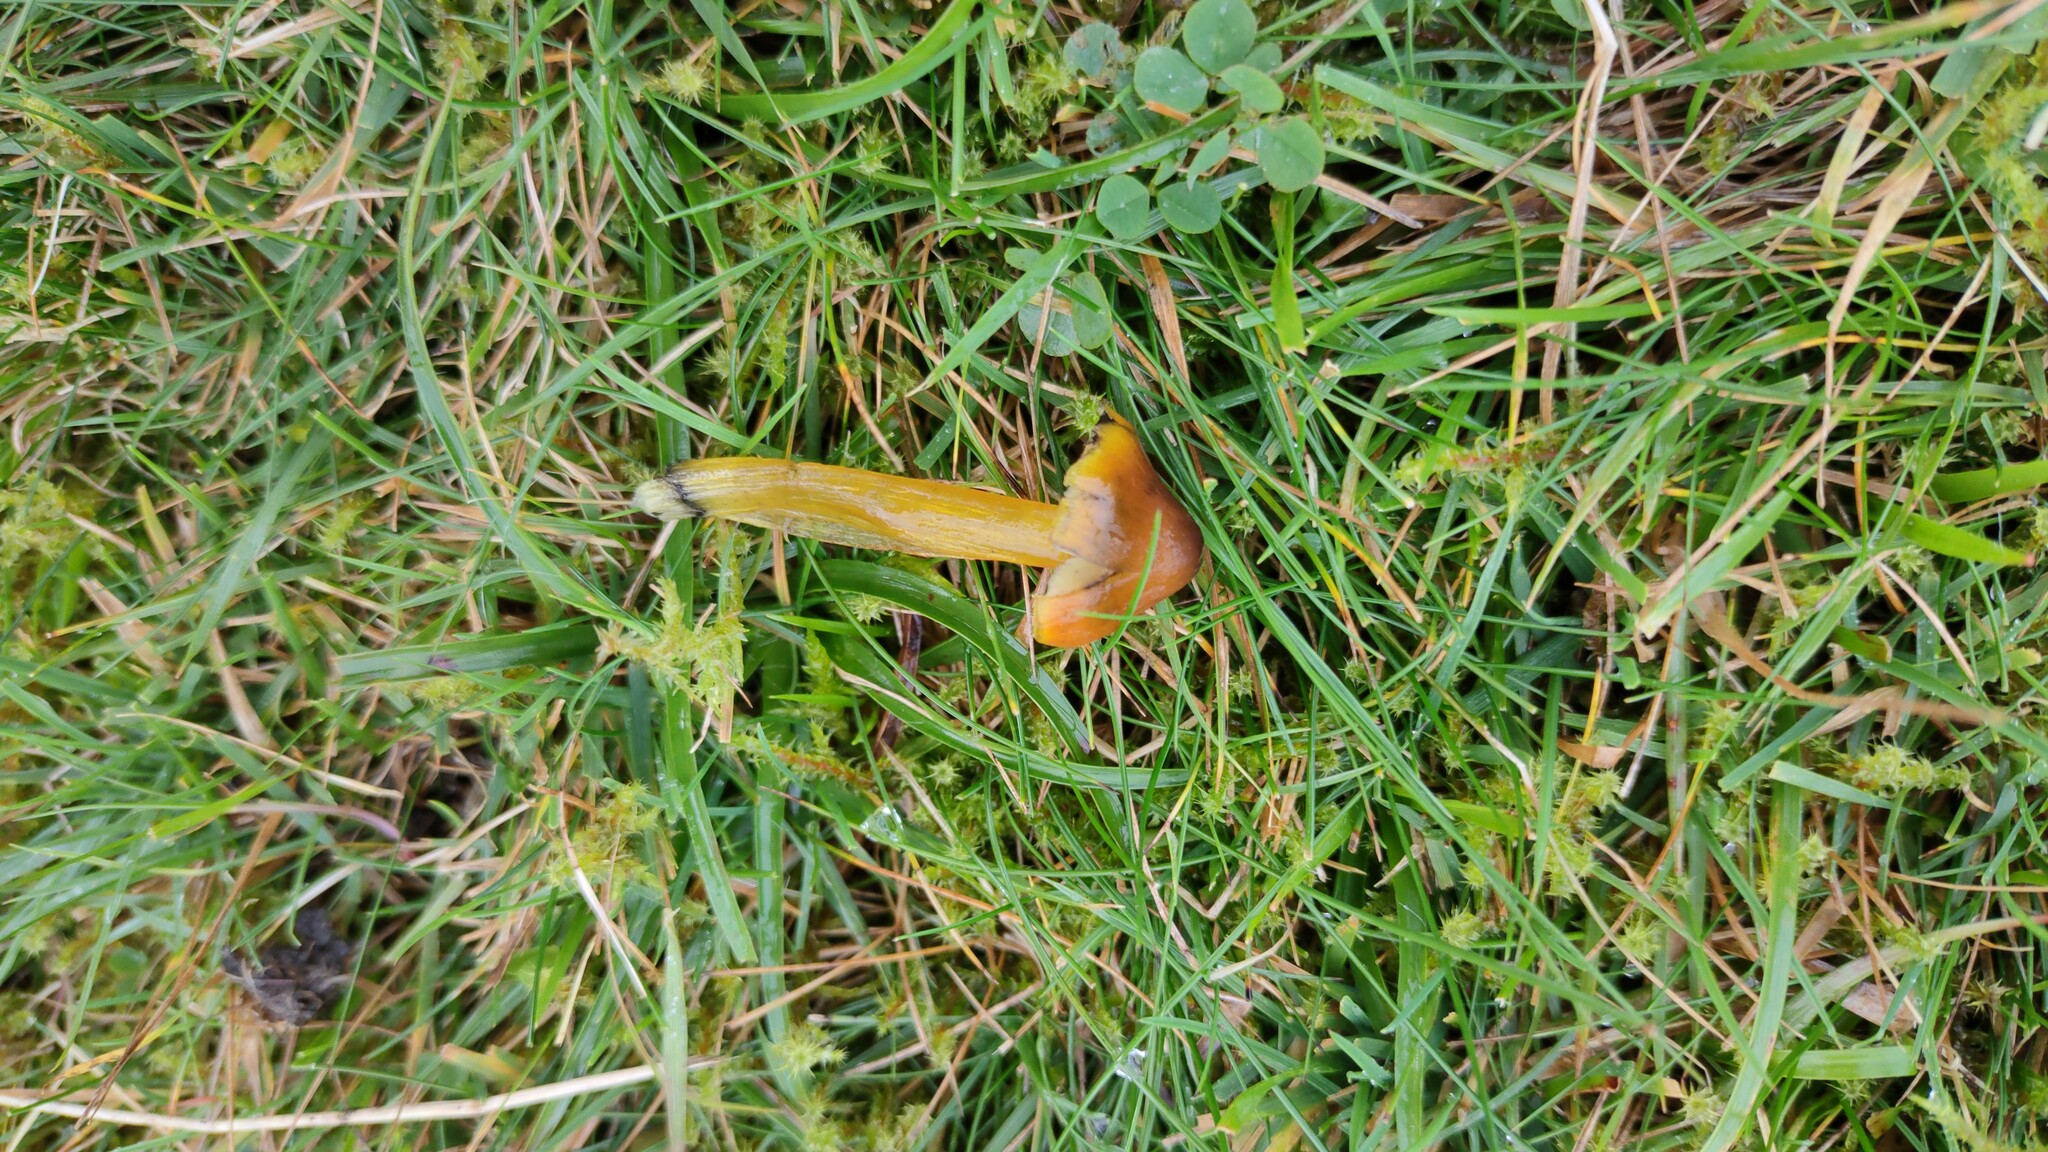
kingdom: Fungi
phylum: Basidiomycota
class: Agaricomycetes
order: Agaricales
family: Hygrophoraceae
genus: Hygrocybe
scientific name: Hygrocybe conica
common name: Blackening wax-cap
